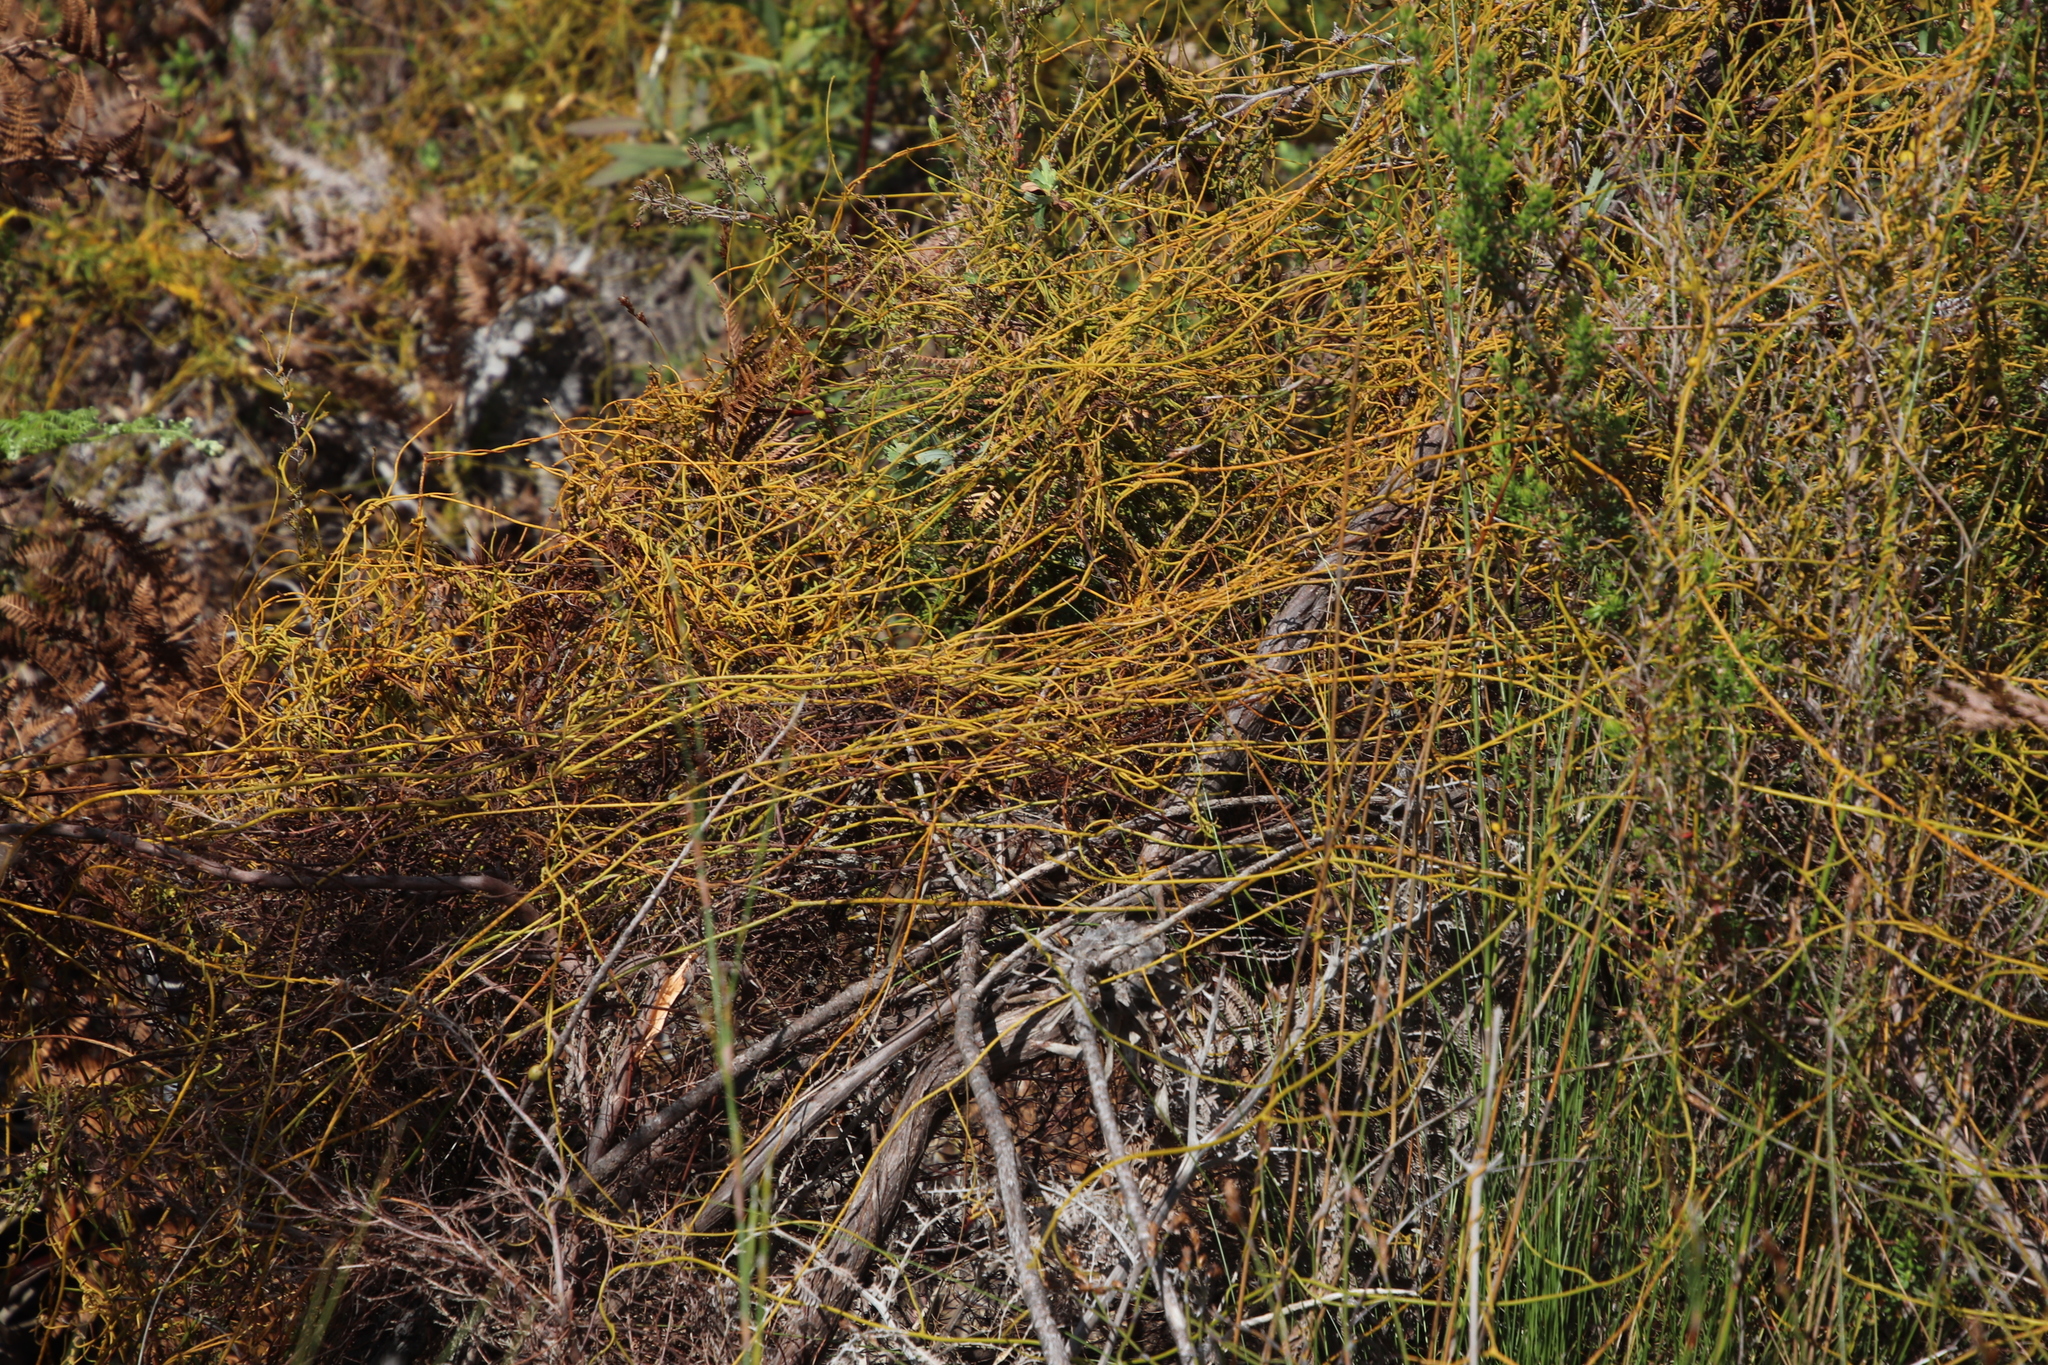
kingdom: Plantae
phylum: Tracheophyta
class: Magnoliopsida
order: Laurales
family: Lauraceae
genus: Cassytha
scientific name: Cassytha ciliolata
